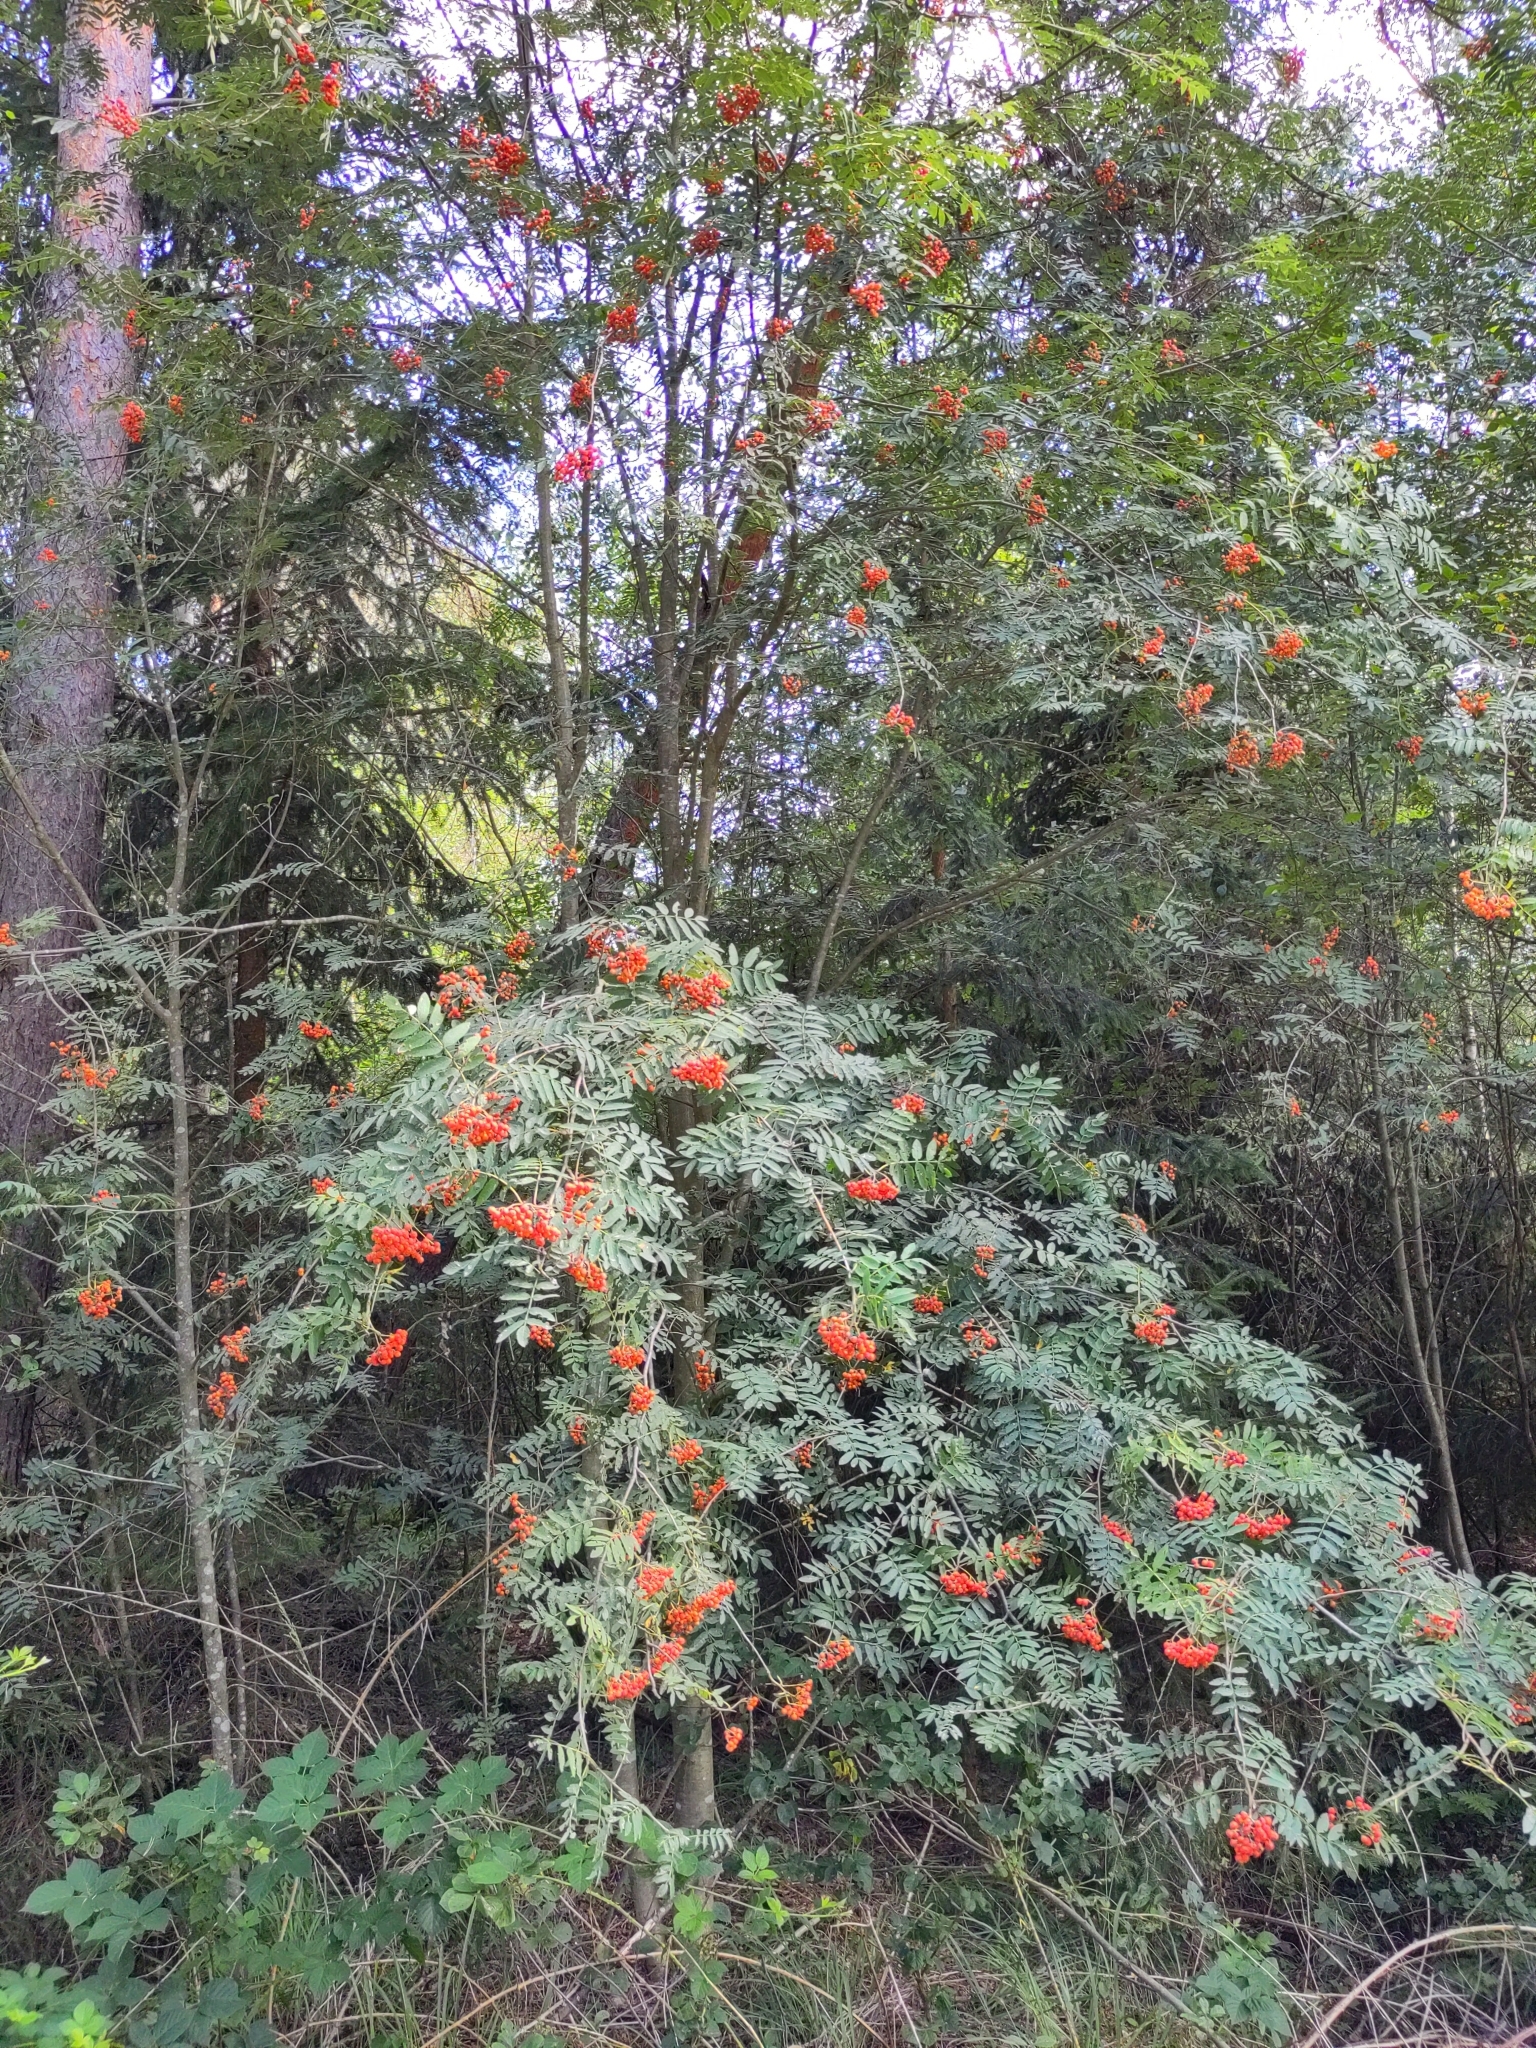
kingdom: Plantae
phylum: Tracheophyta
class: Magnoliopsida
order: Rosales
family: Rosaceae
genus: Sorbus
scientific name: Sorbus aucuparia
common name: Rowan
